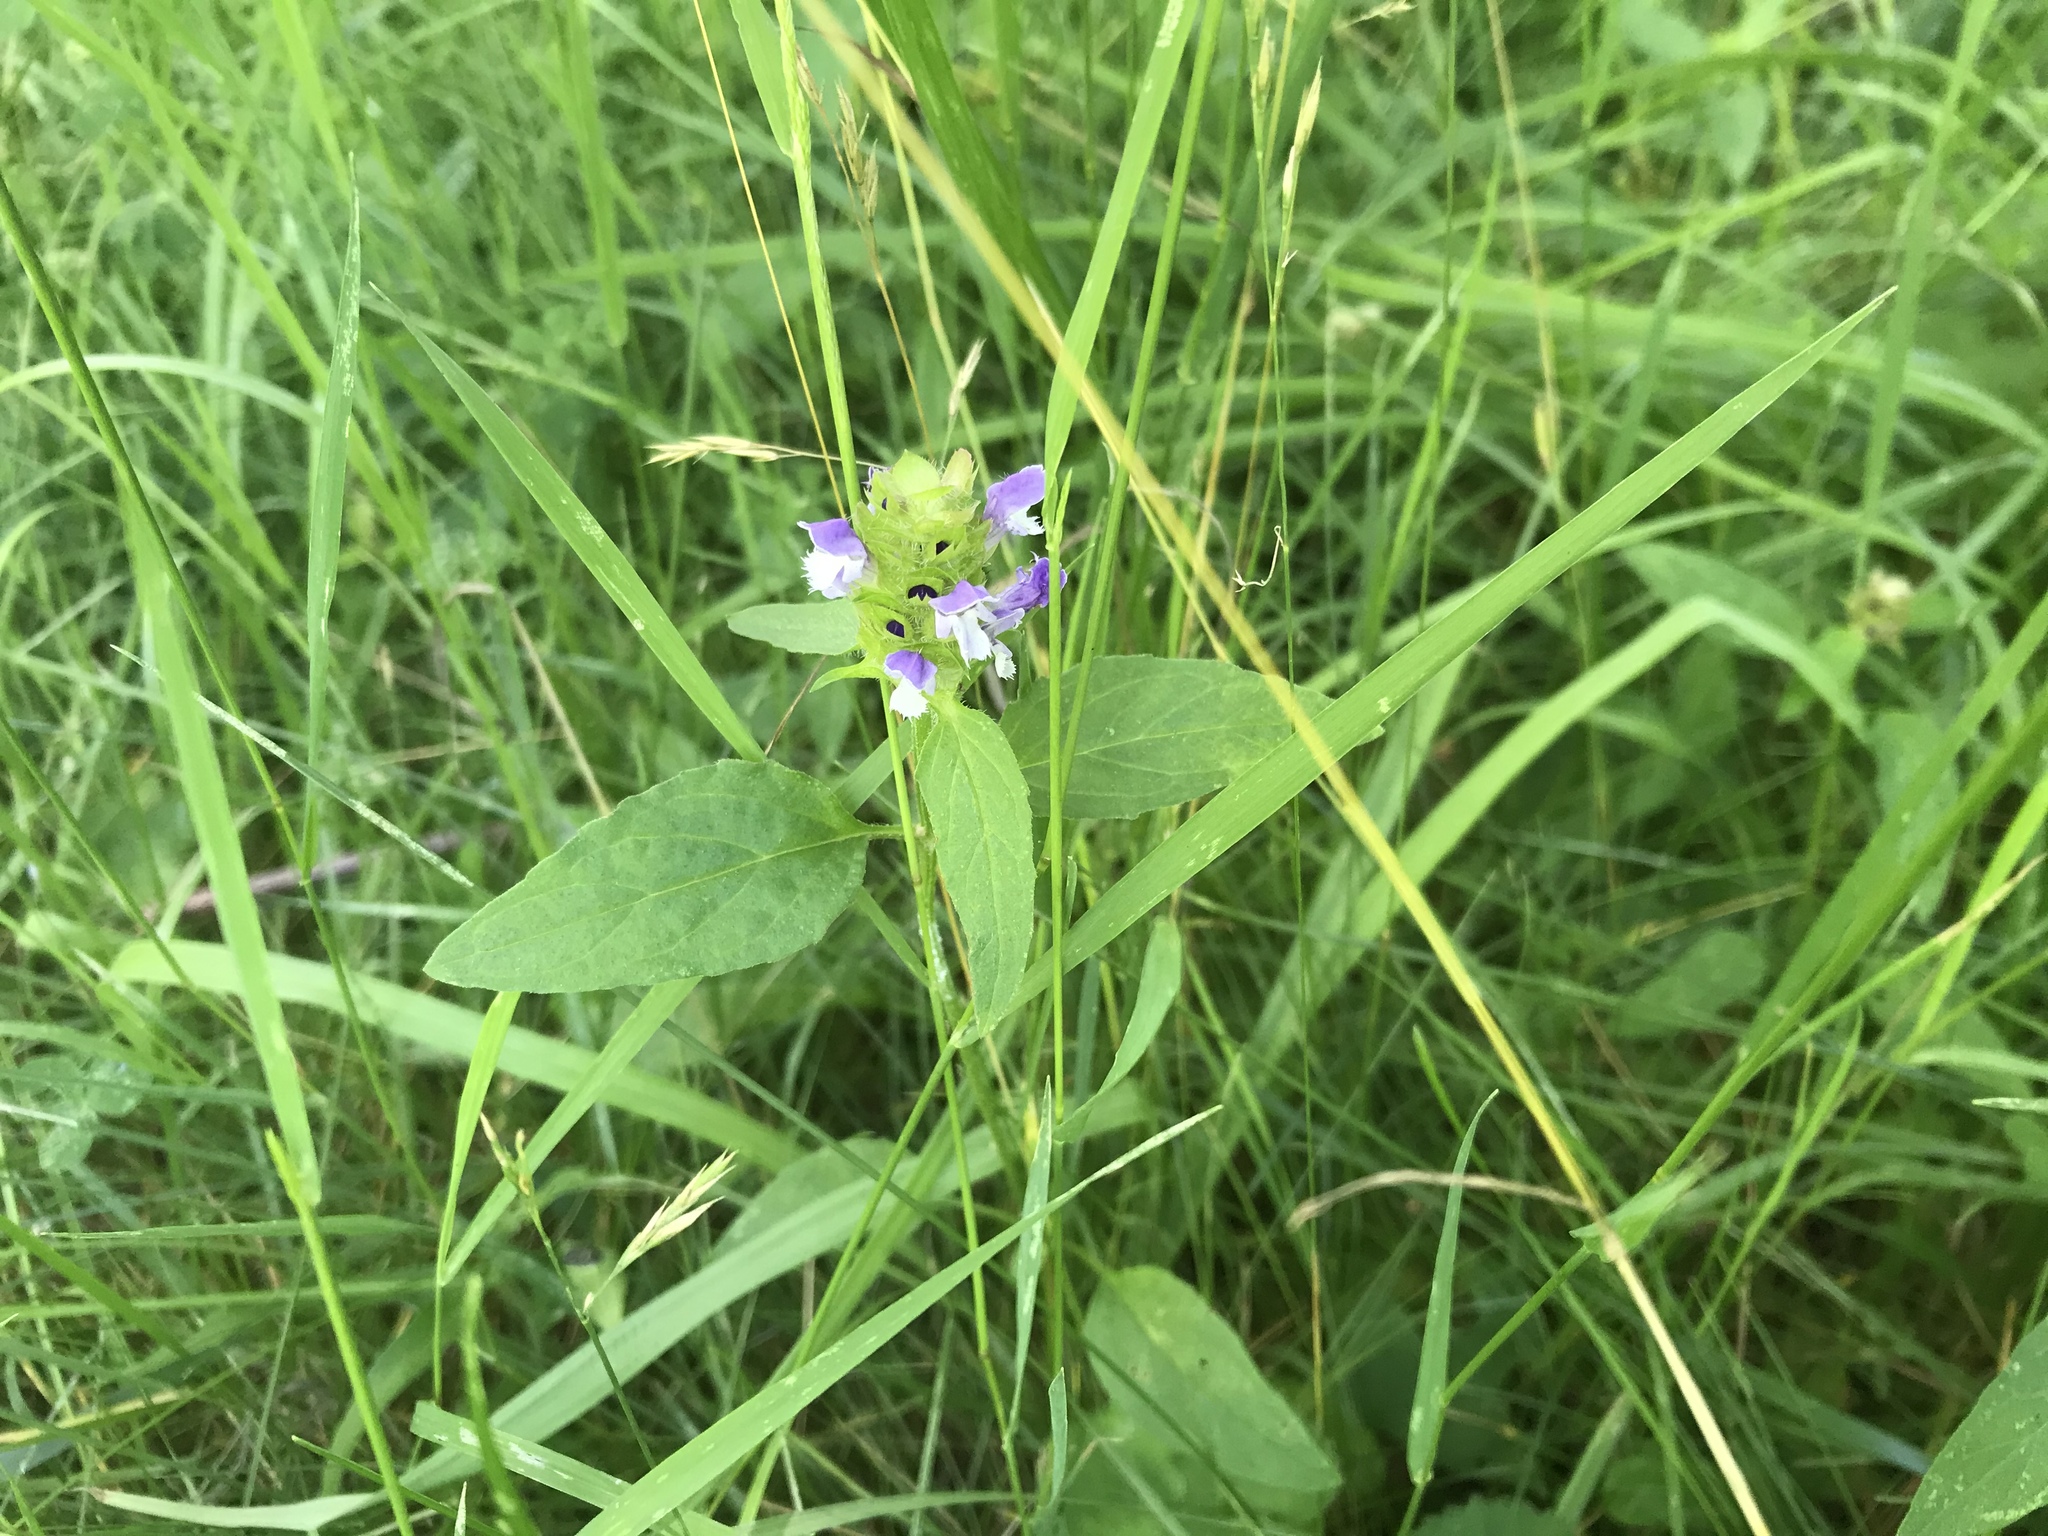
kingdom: Plantae
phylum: Tracheophyta
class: Magnoliopsida
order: Lamiales
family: Lamiaceae
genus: Prunella
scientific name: Prunella vulgaris
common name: Heal-all
